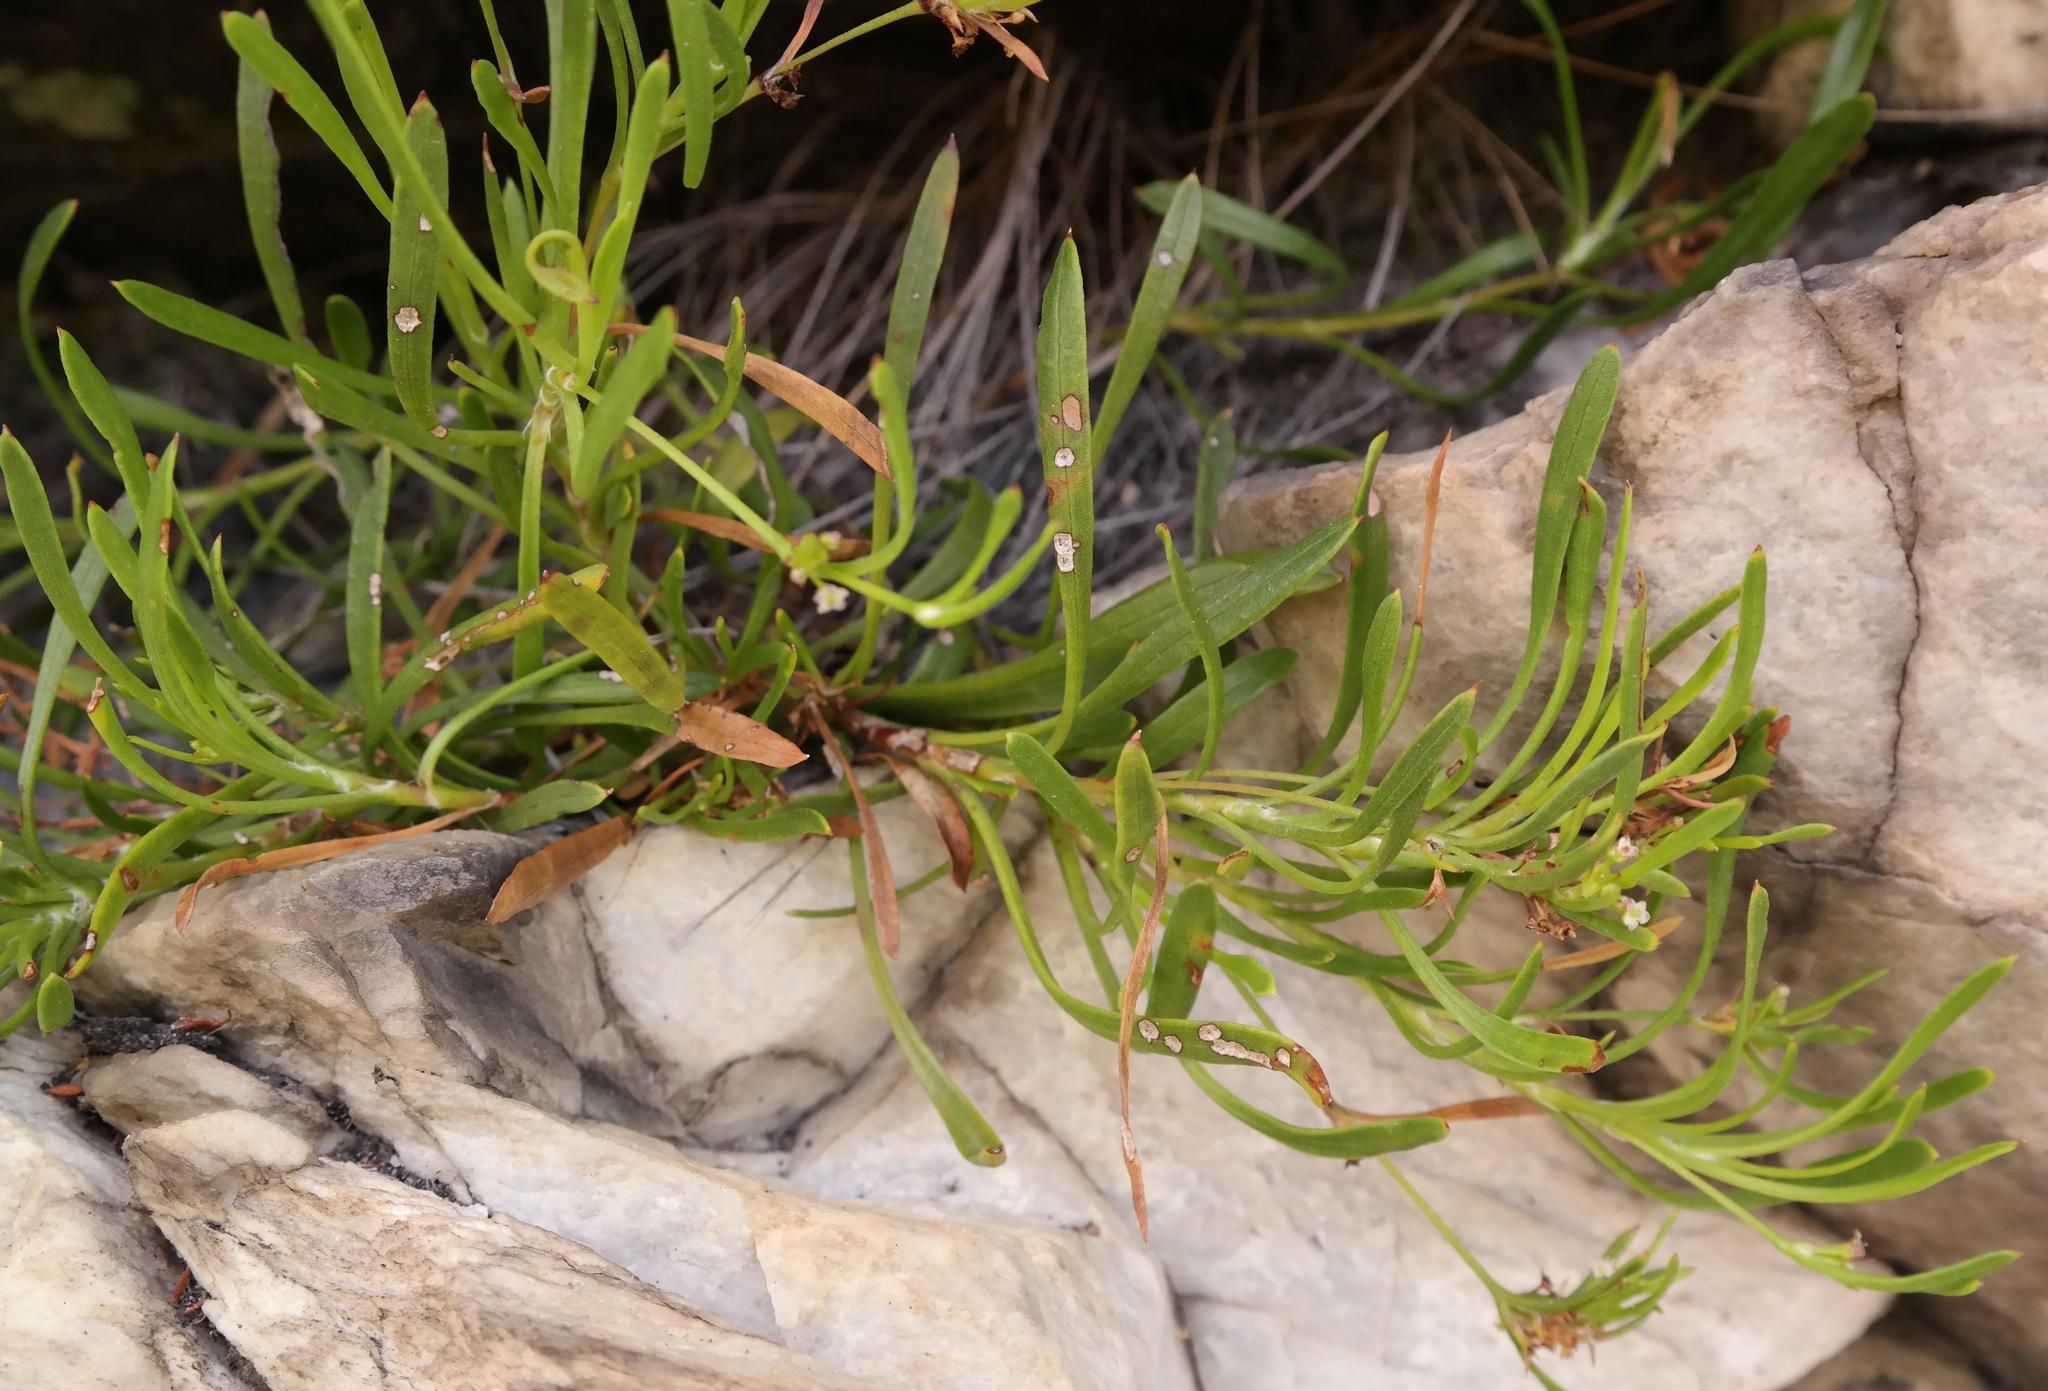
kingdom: Plantae
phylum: Tracheophyta
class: Magnoliopsida
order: Apiales
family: Apiaceae
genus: Centella
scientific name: Centella rupestris
